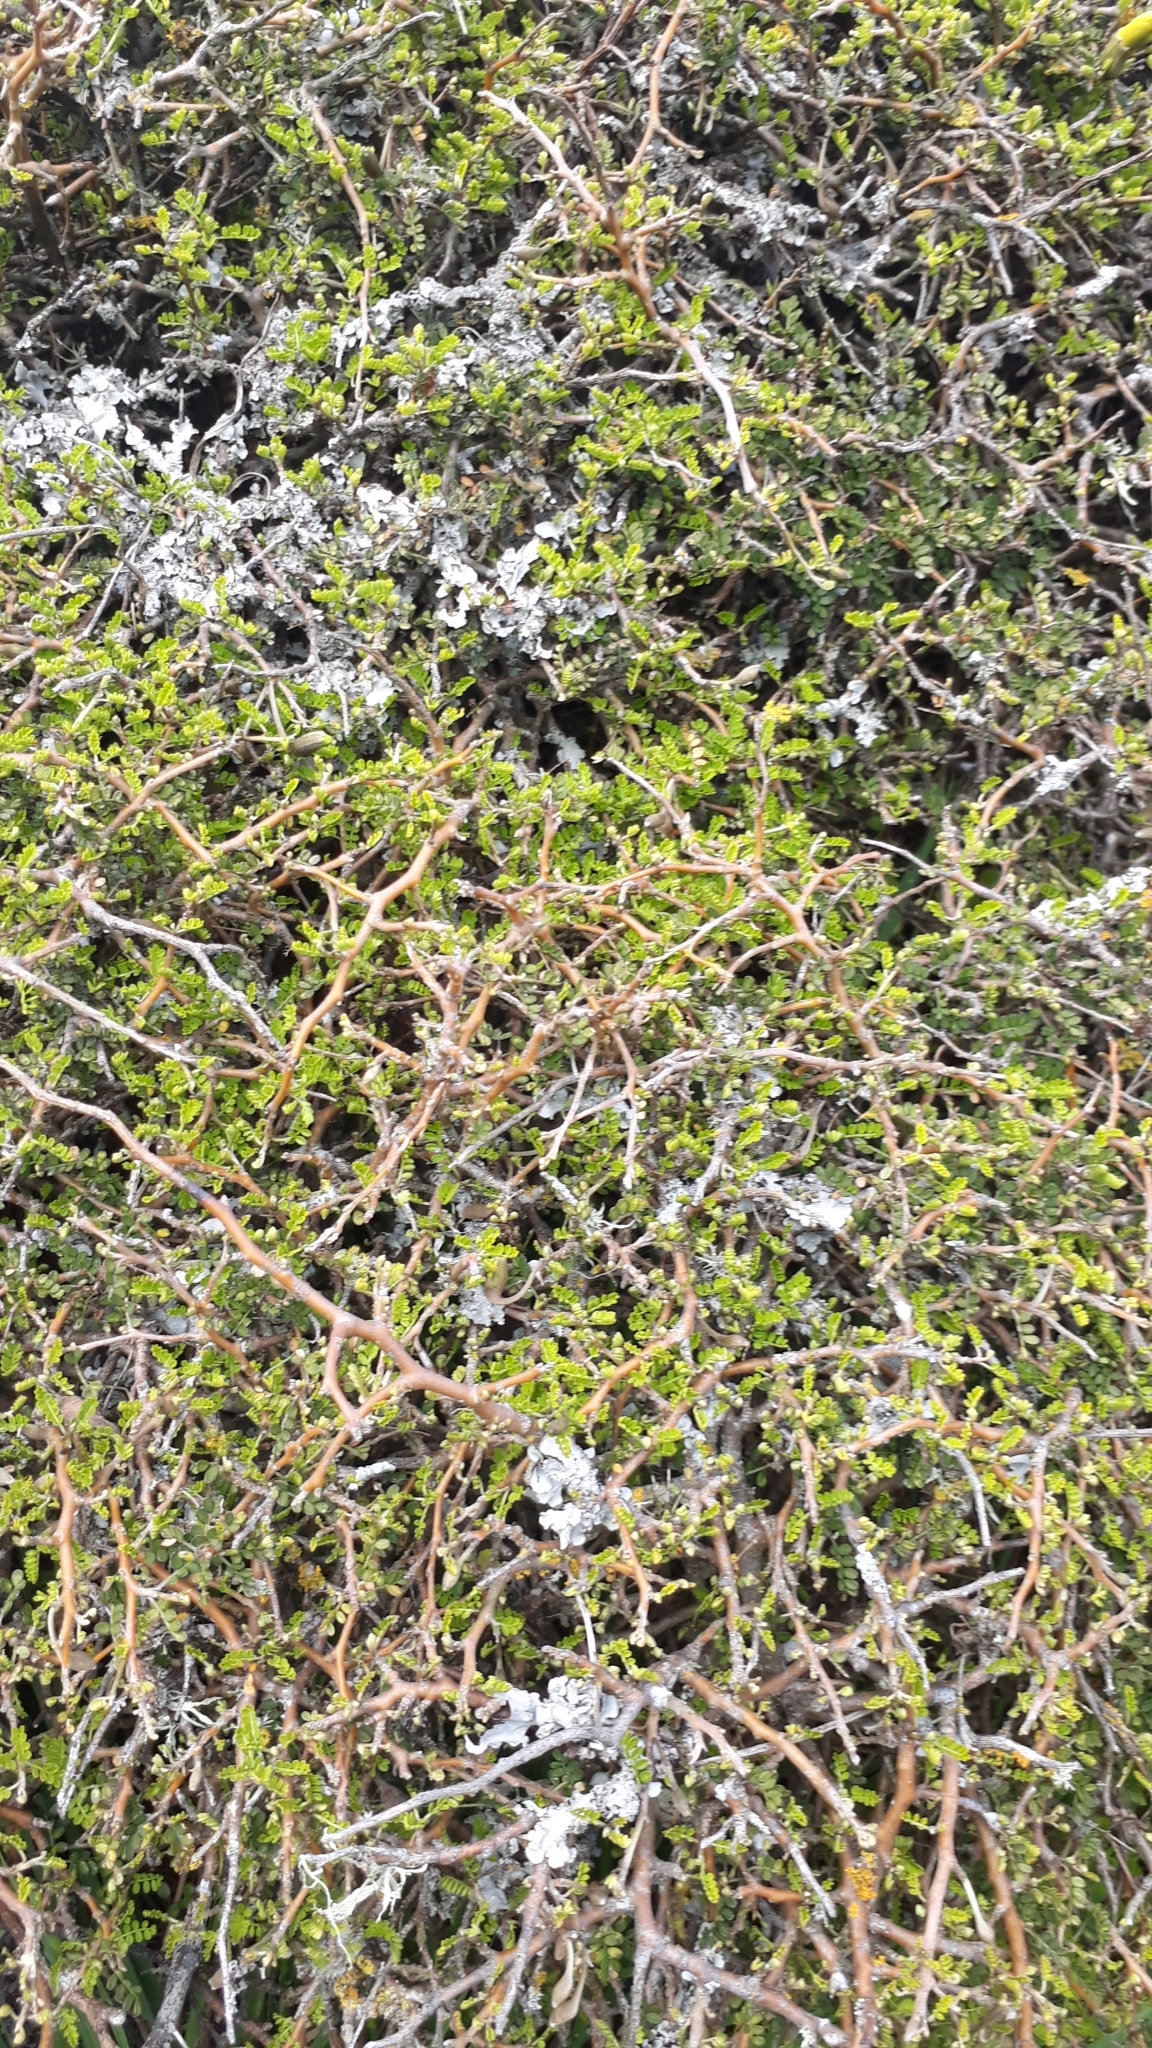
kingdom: Plantae
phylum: Tracheophyta
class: Magnoliopsida
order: Fabales
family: Fabaceae
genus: Sophora
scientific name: Sophora prostrata
